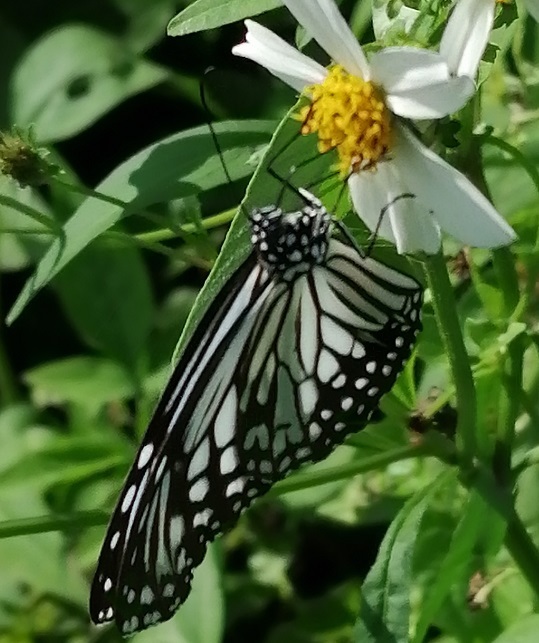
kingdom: Animalia
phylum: Arthropoda
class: Insecta
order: Lepidoptera
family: Nymphalidae
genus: Parantica
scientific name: Parantica aglea
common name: Glassy tiger
